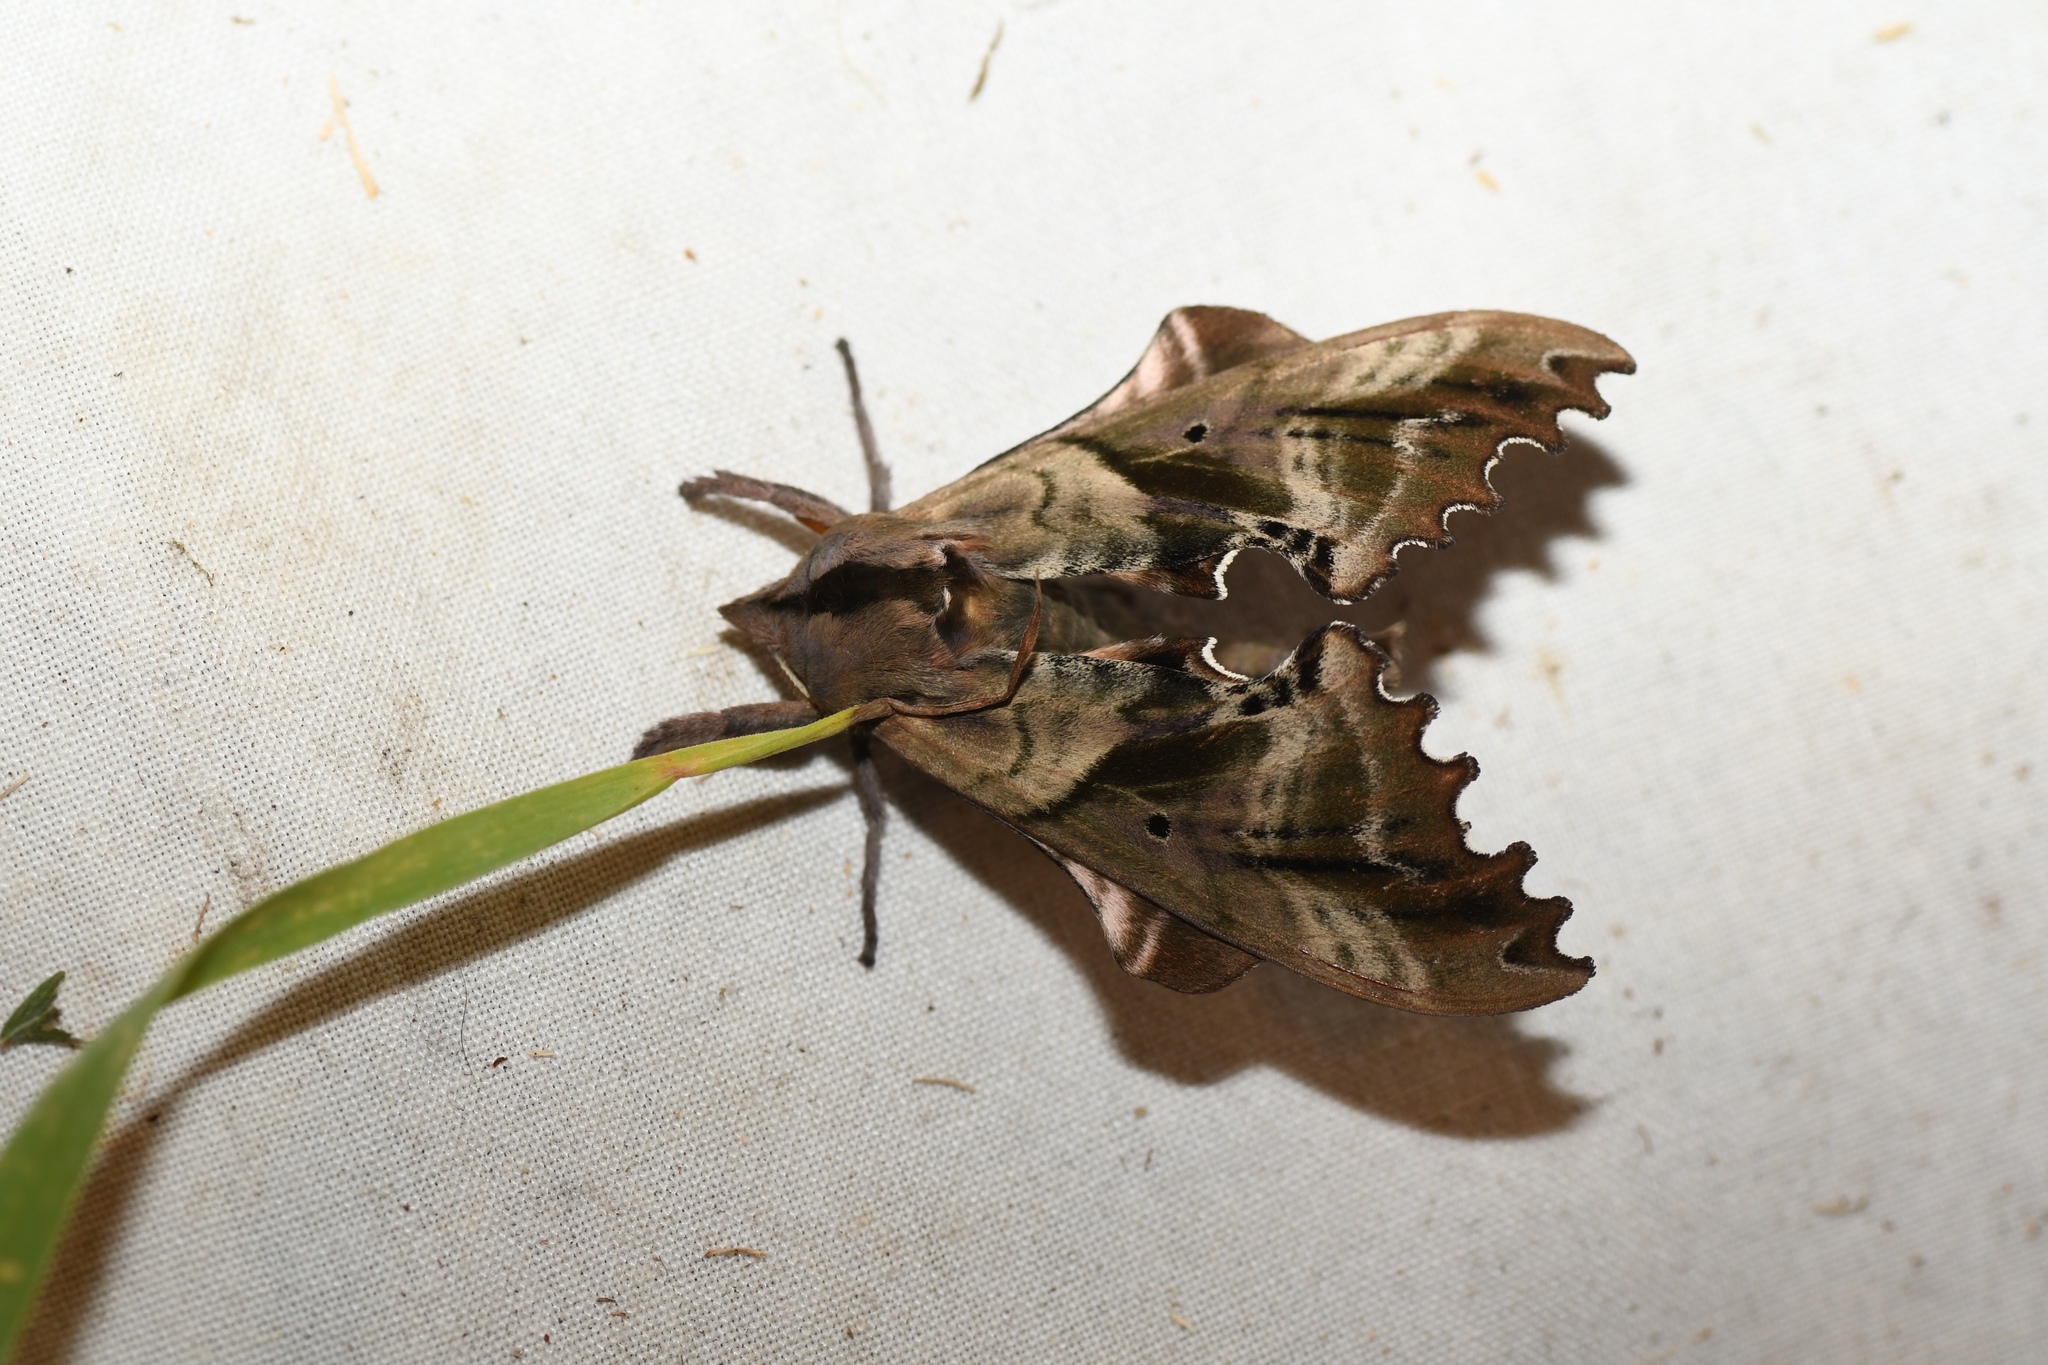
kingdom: Animalia
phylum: Arthropoda
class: Insecta
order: Lepidoptera
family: Sphingidae
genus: Paonias
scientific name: Paonias excaecata
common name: Blind-eyed sphinx
